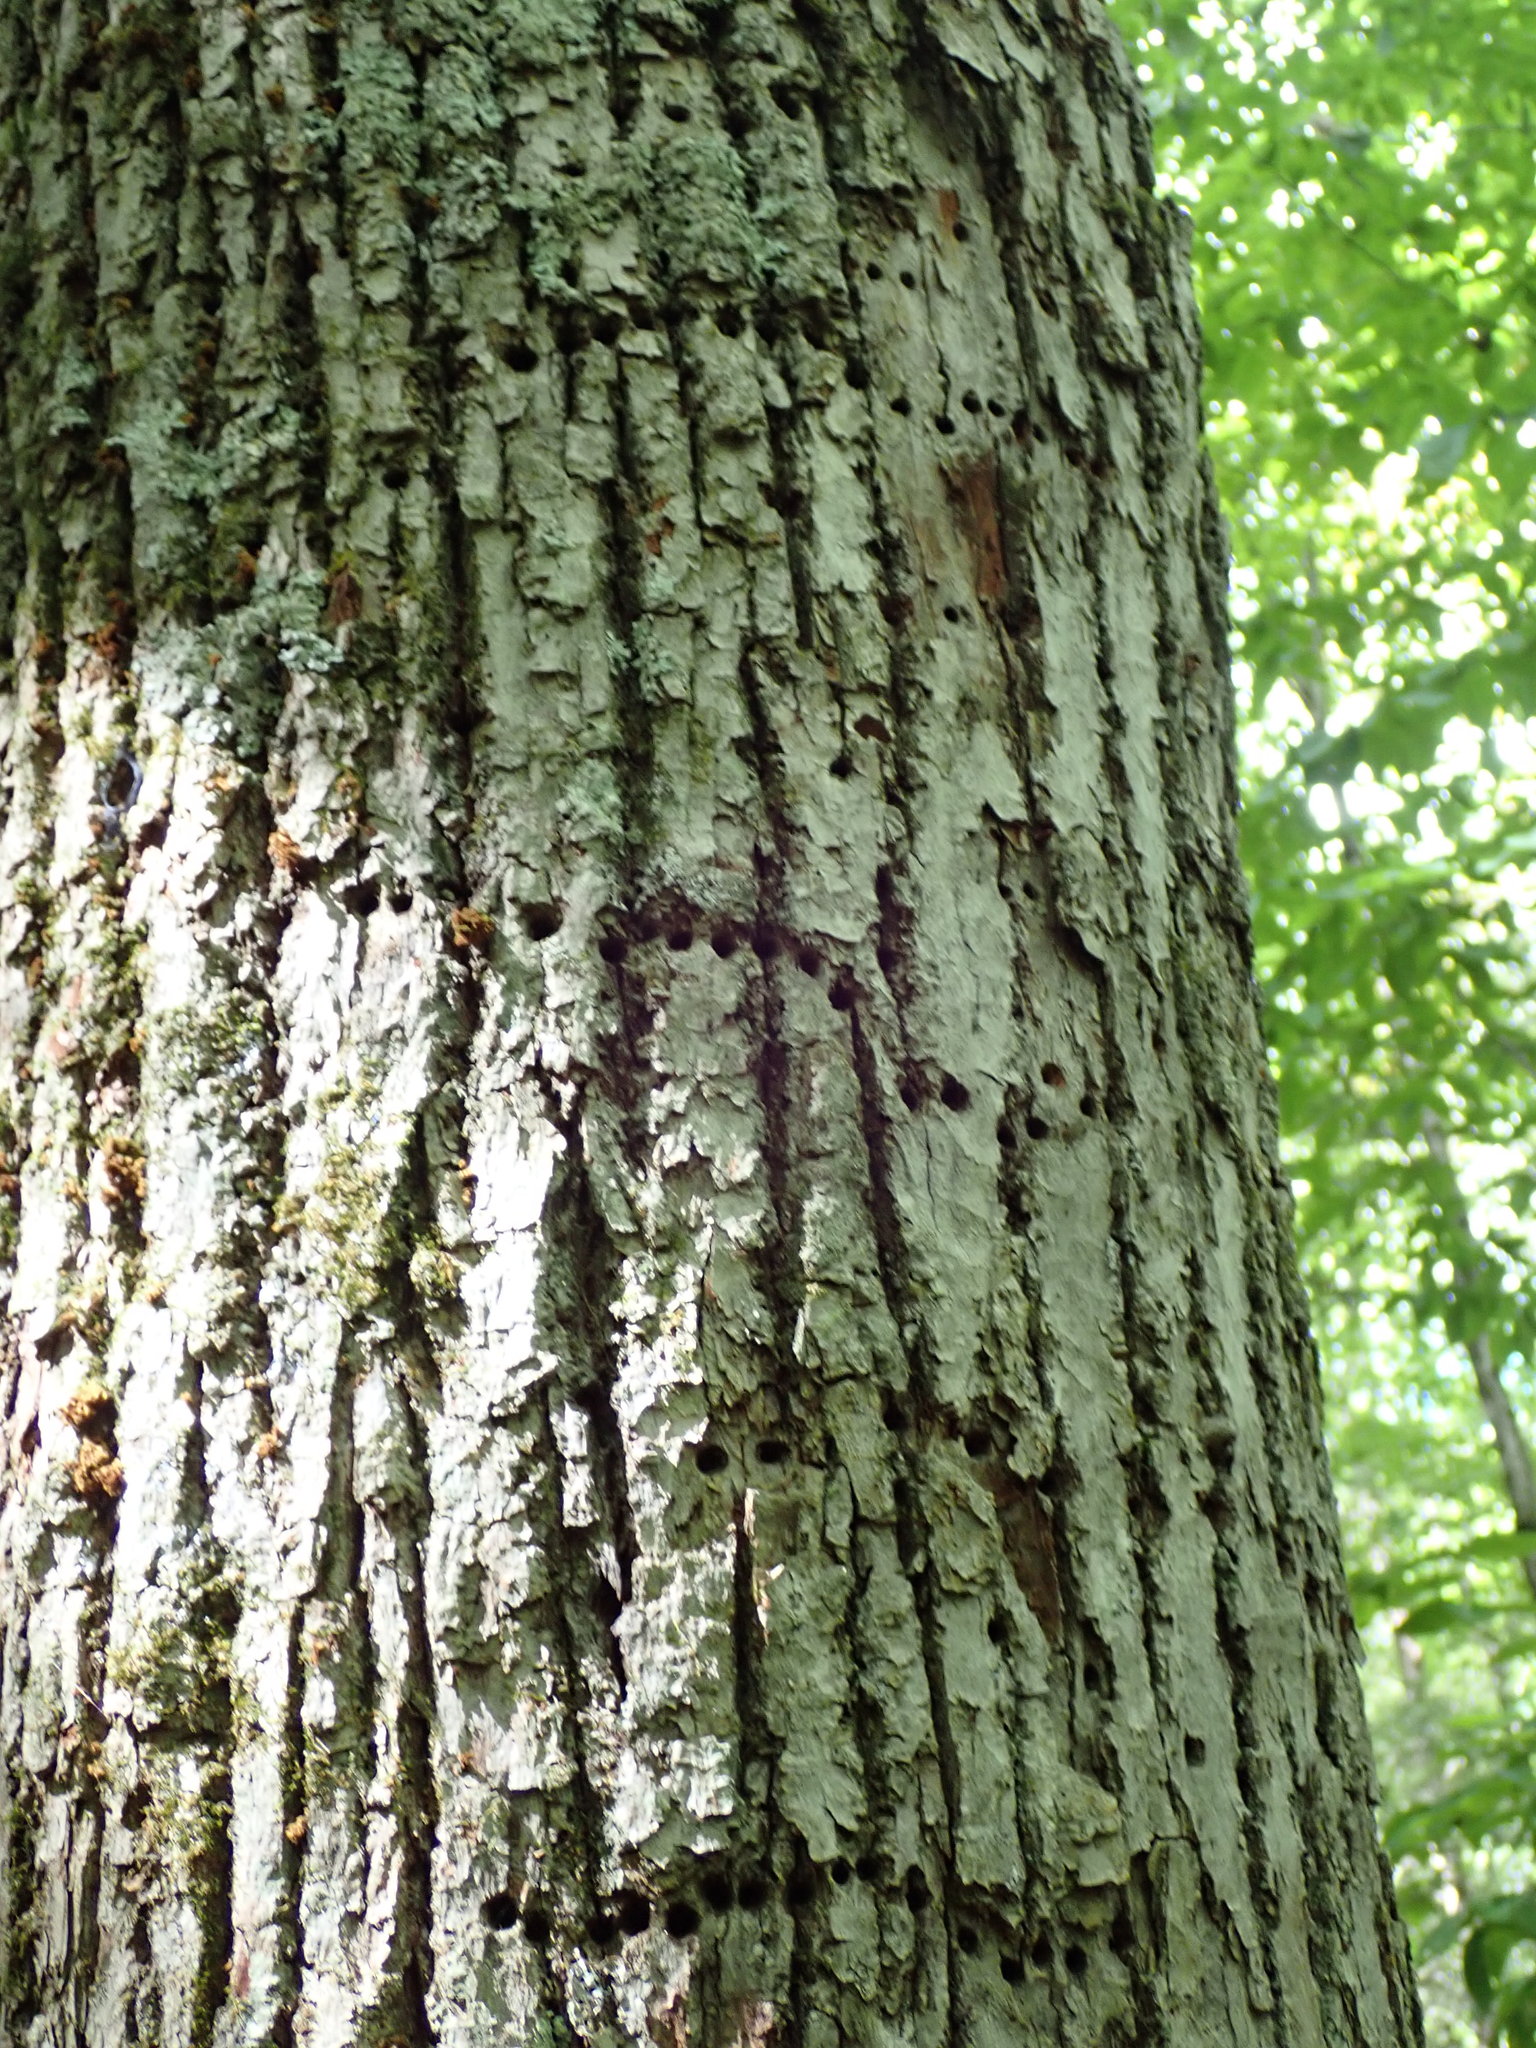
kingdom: Animalia
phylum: Chordata
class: Aves
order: Piciformes
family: Picidae
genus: Sphyrapicus
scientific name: Sphyrapicus varius
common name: Yellow-bellied sapsucker
